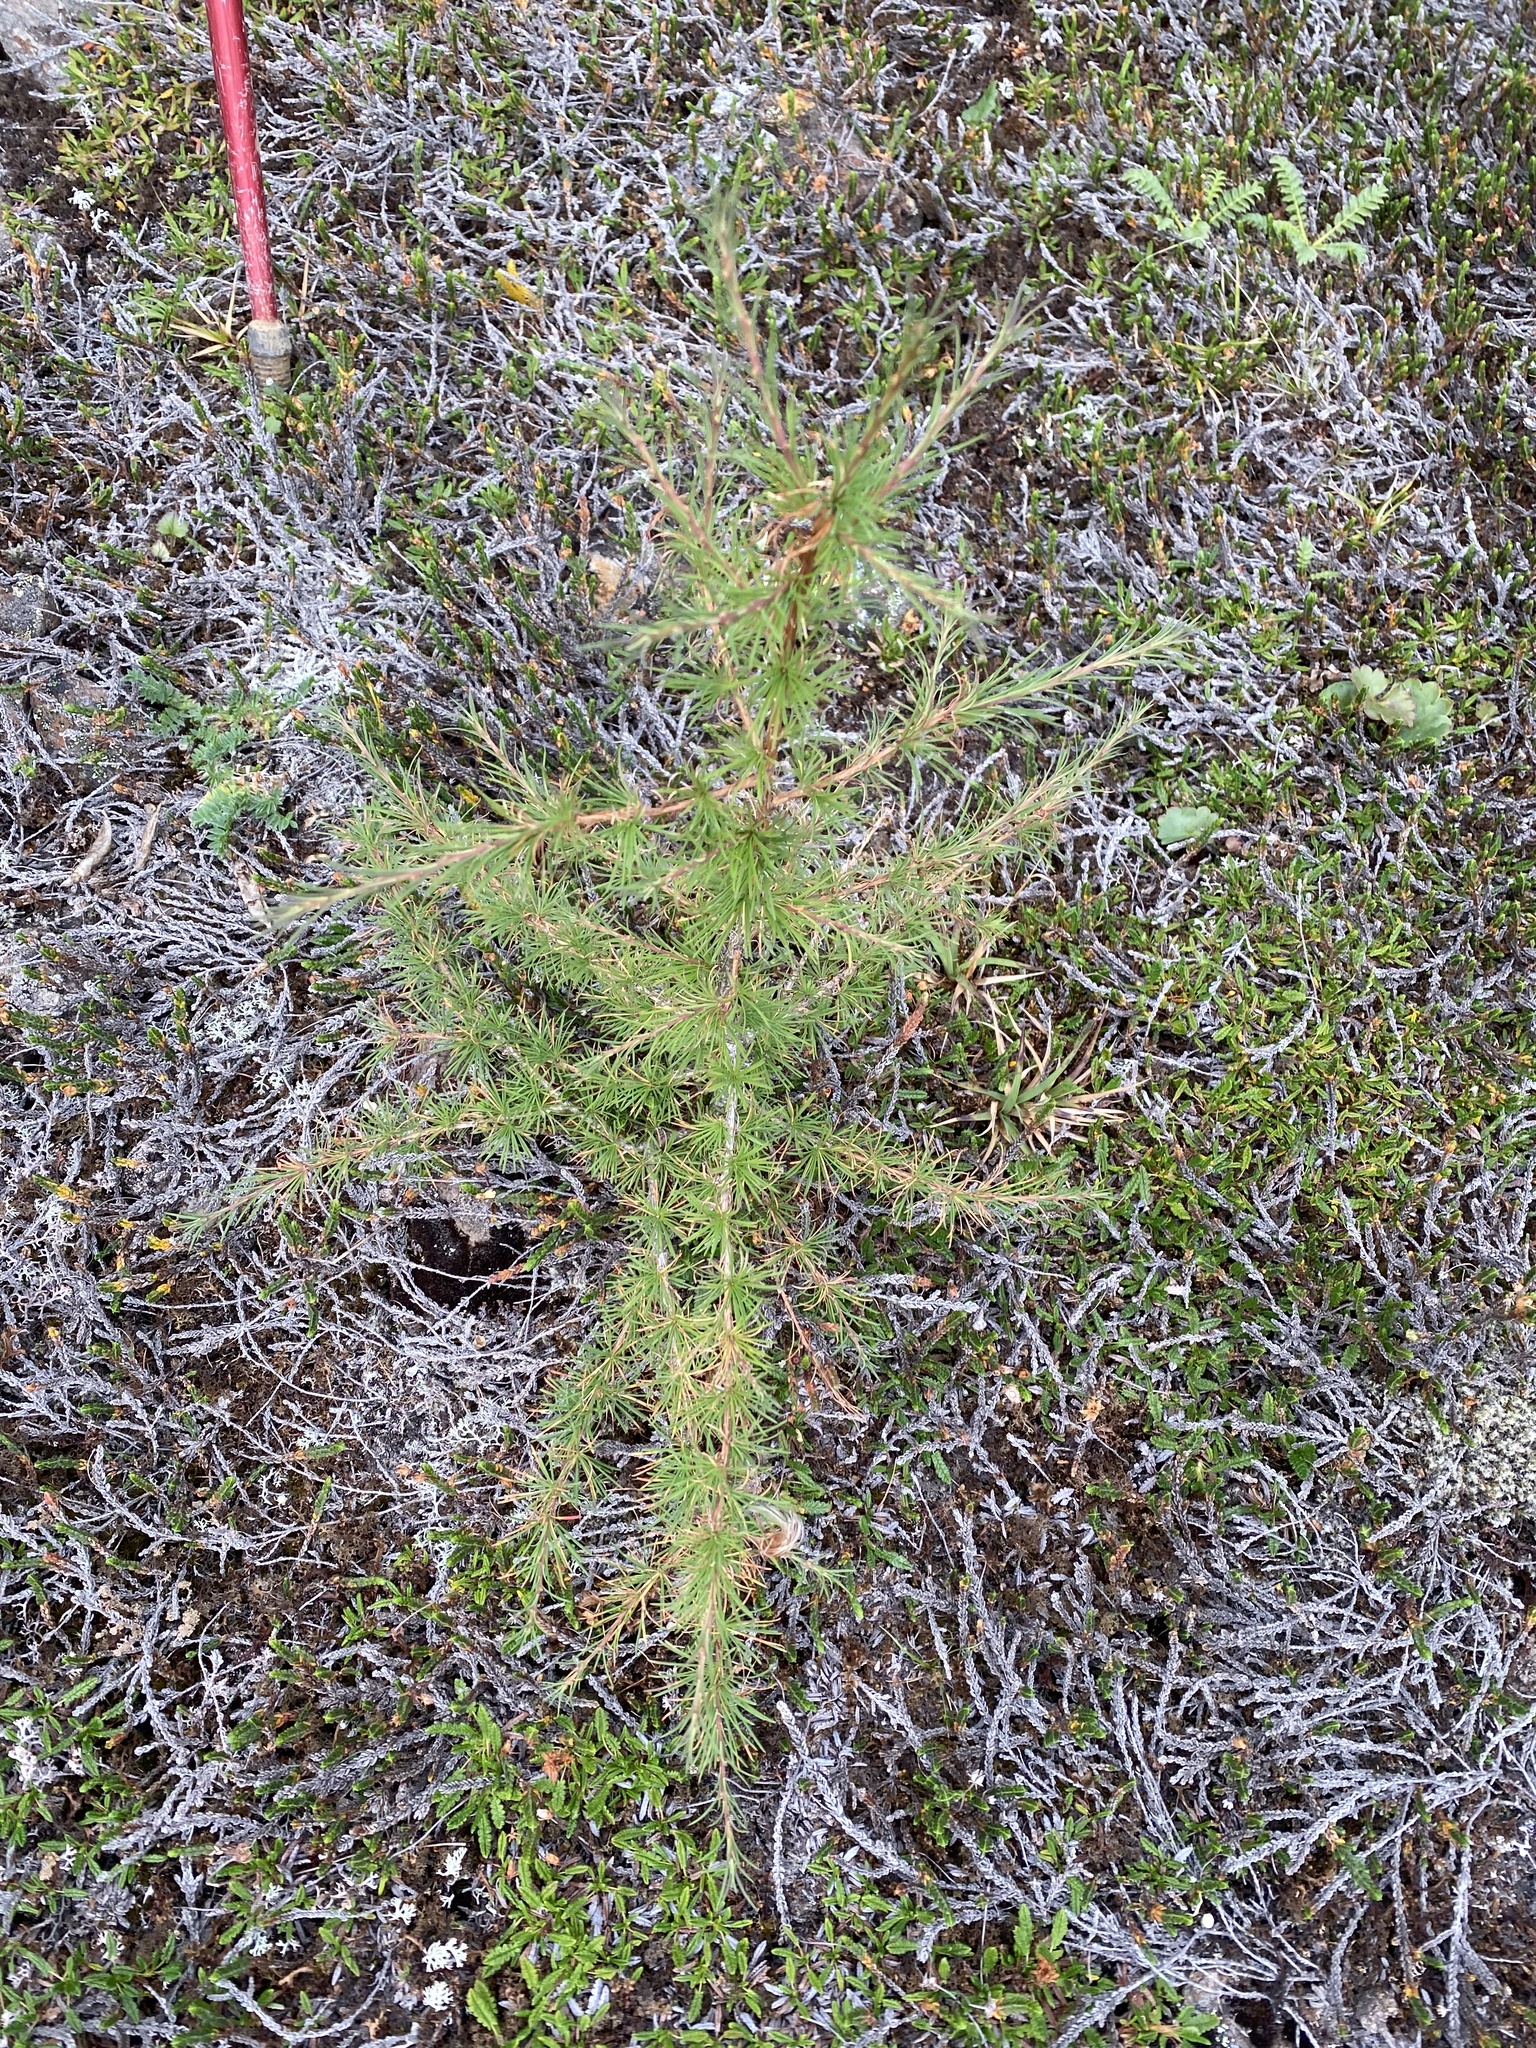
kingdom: Plantae
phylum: Tracheophyta
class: Pinopsida
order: Pinales
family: Pinaceae
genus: Larix
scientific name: Larix
